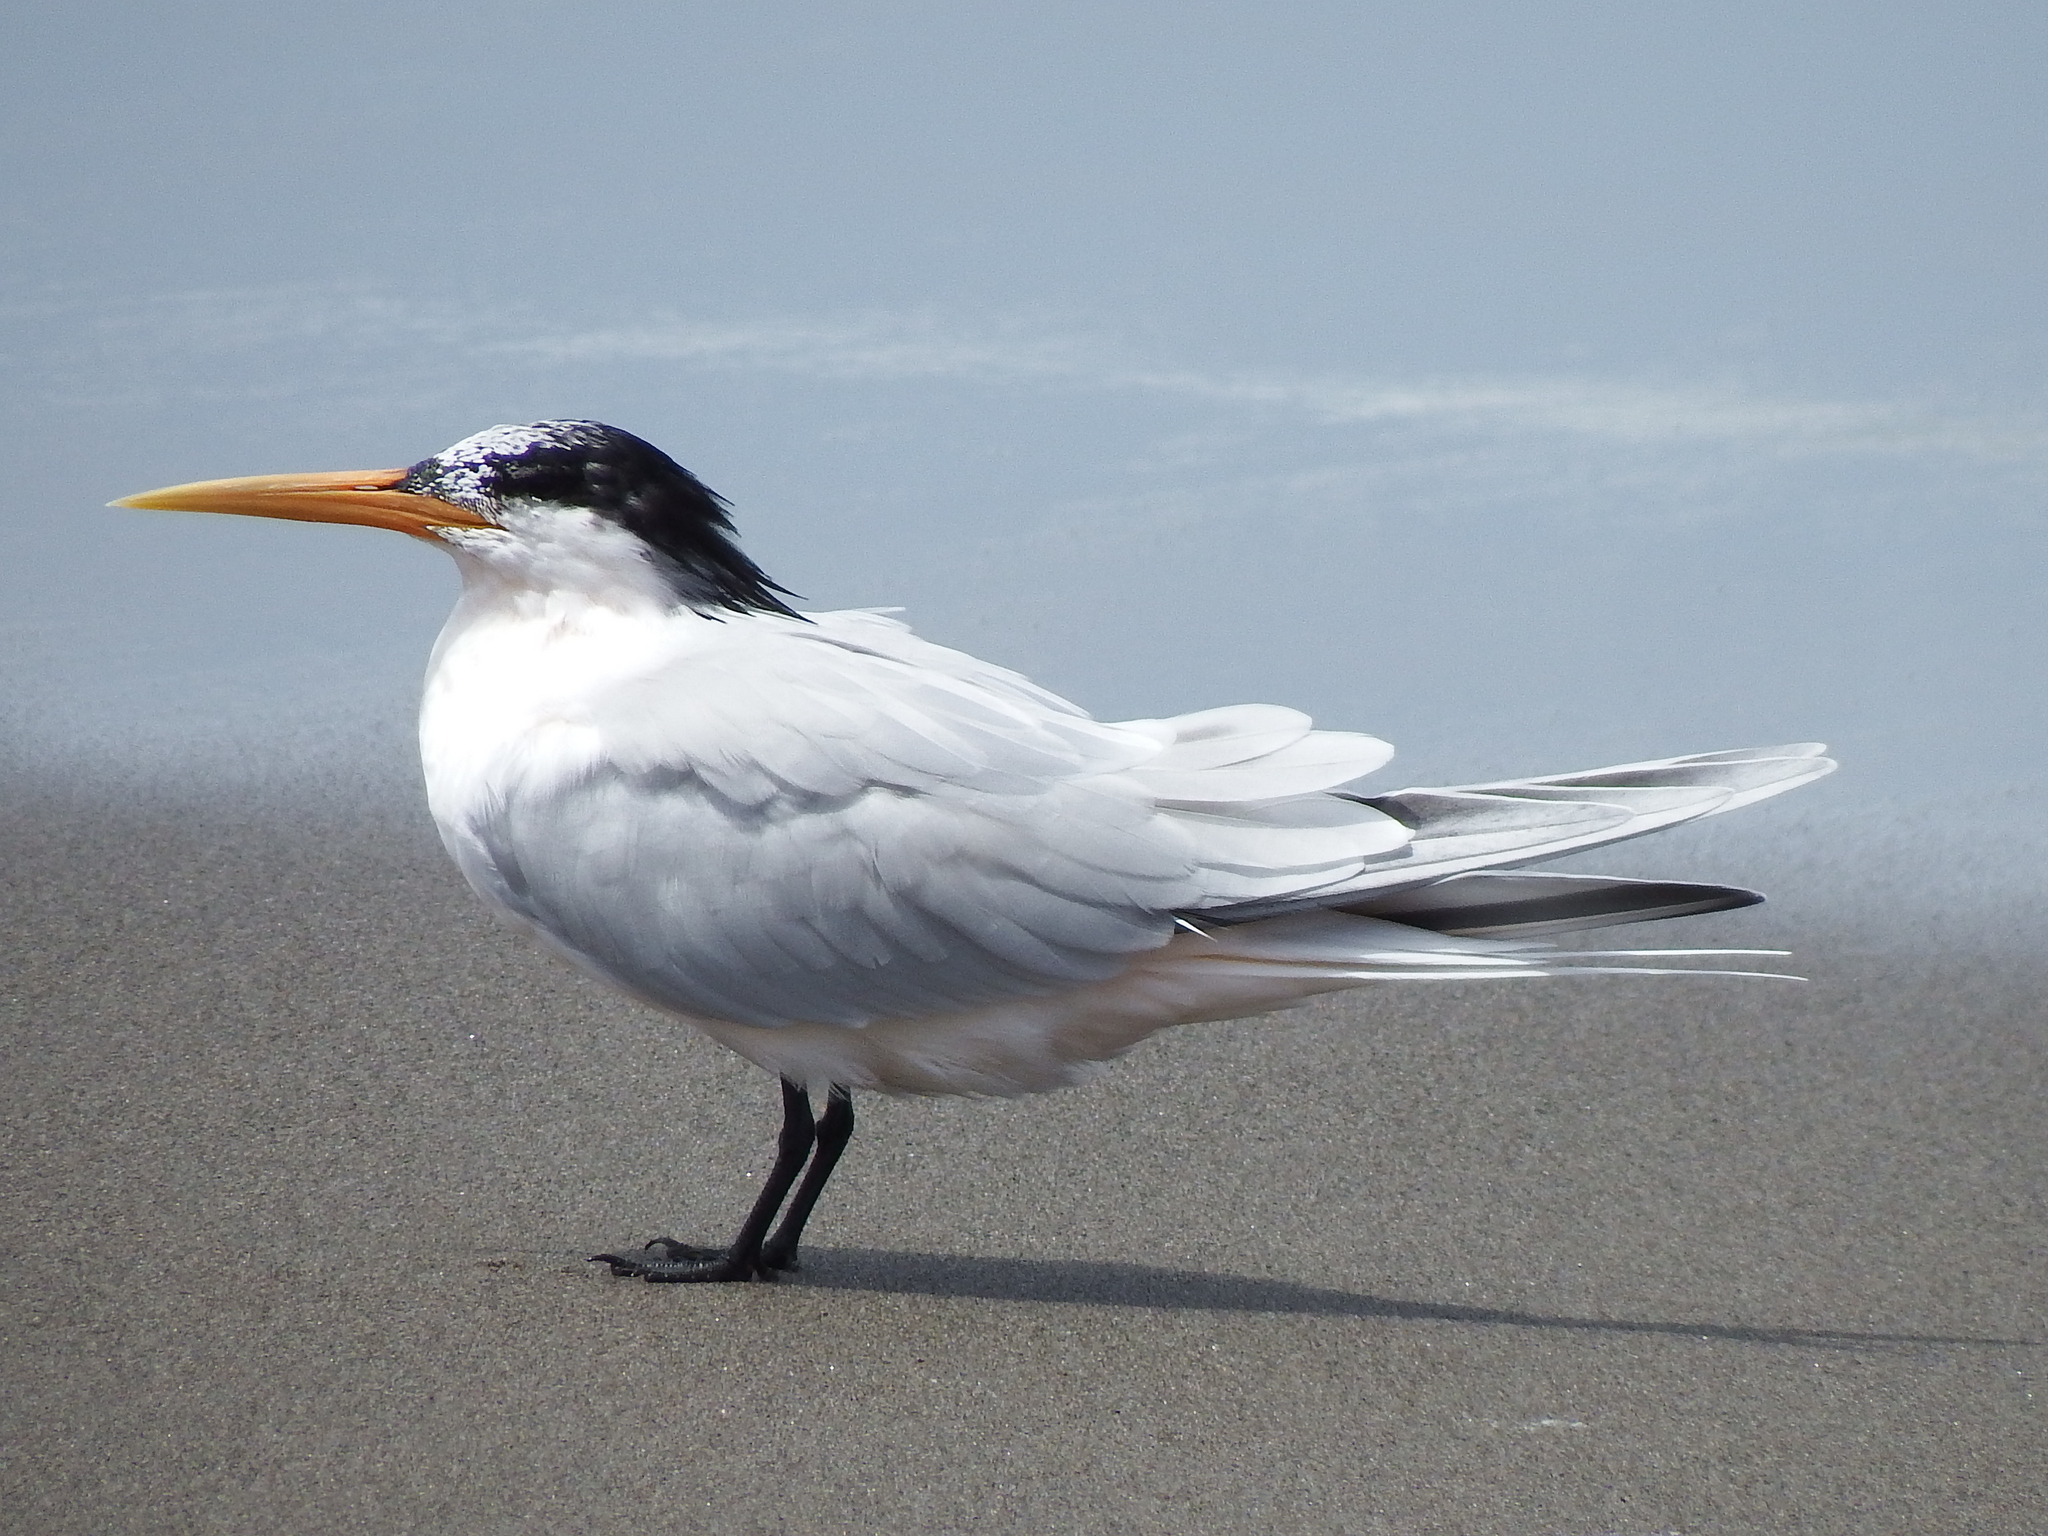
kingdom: Animalia
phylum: Chordata
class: Aves
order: Charadriiformes
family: Laridae
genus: Thalasseus
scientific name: Thalasseus elegans
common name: Elegant tern
